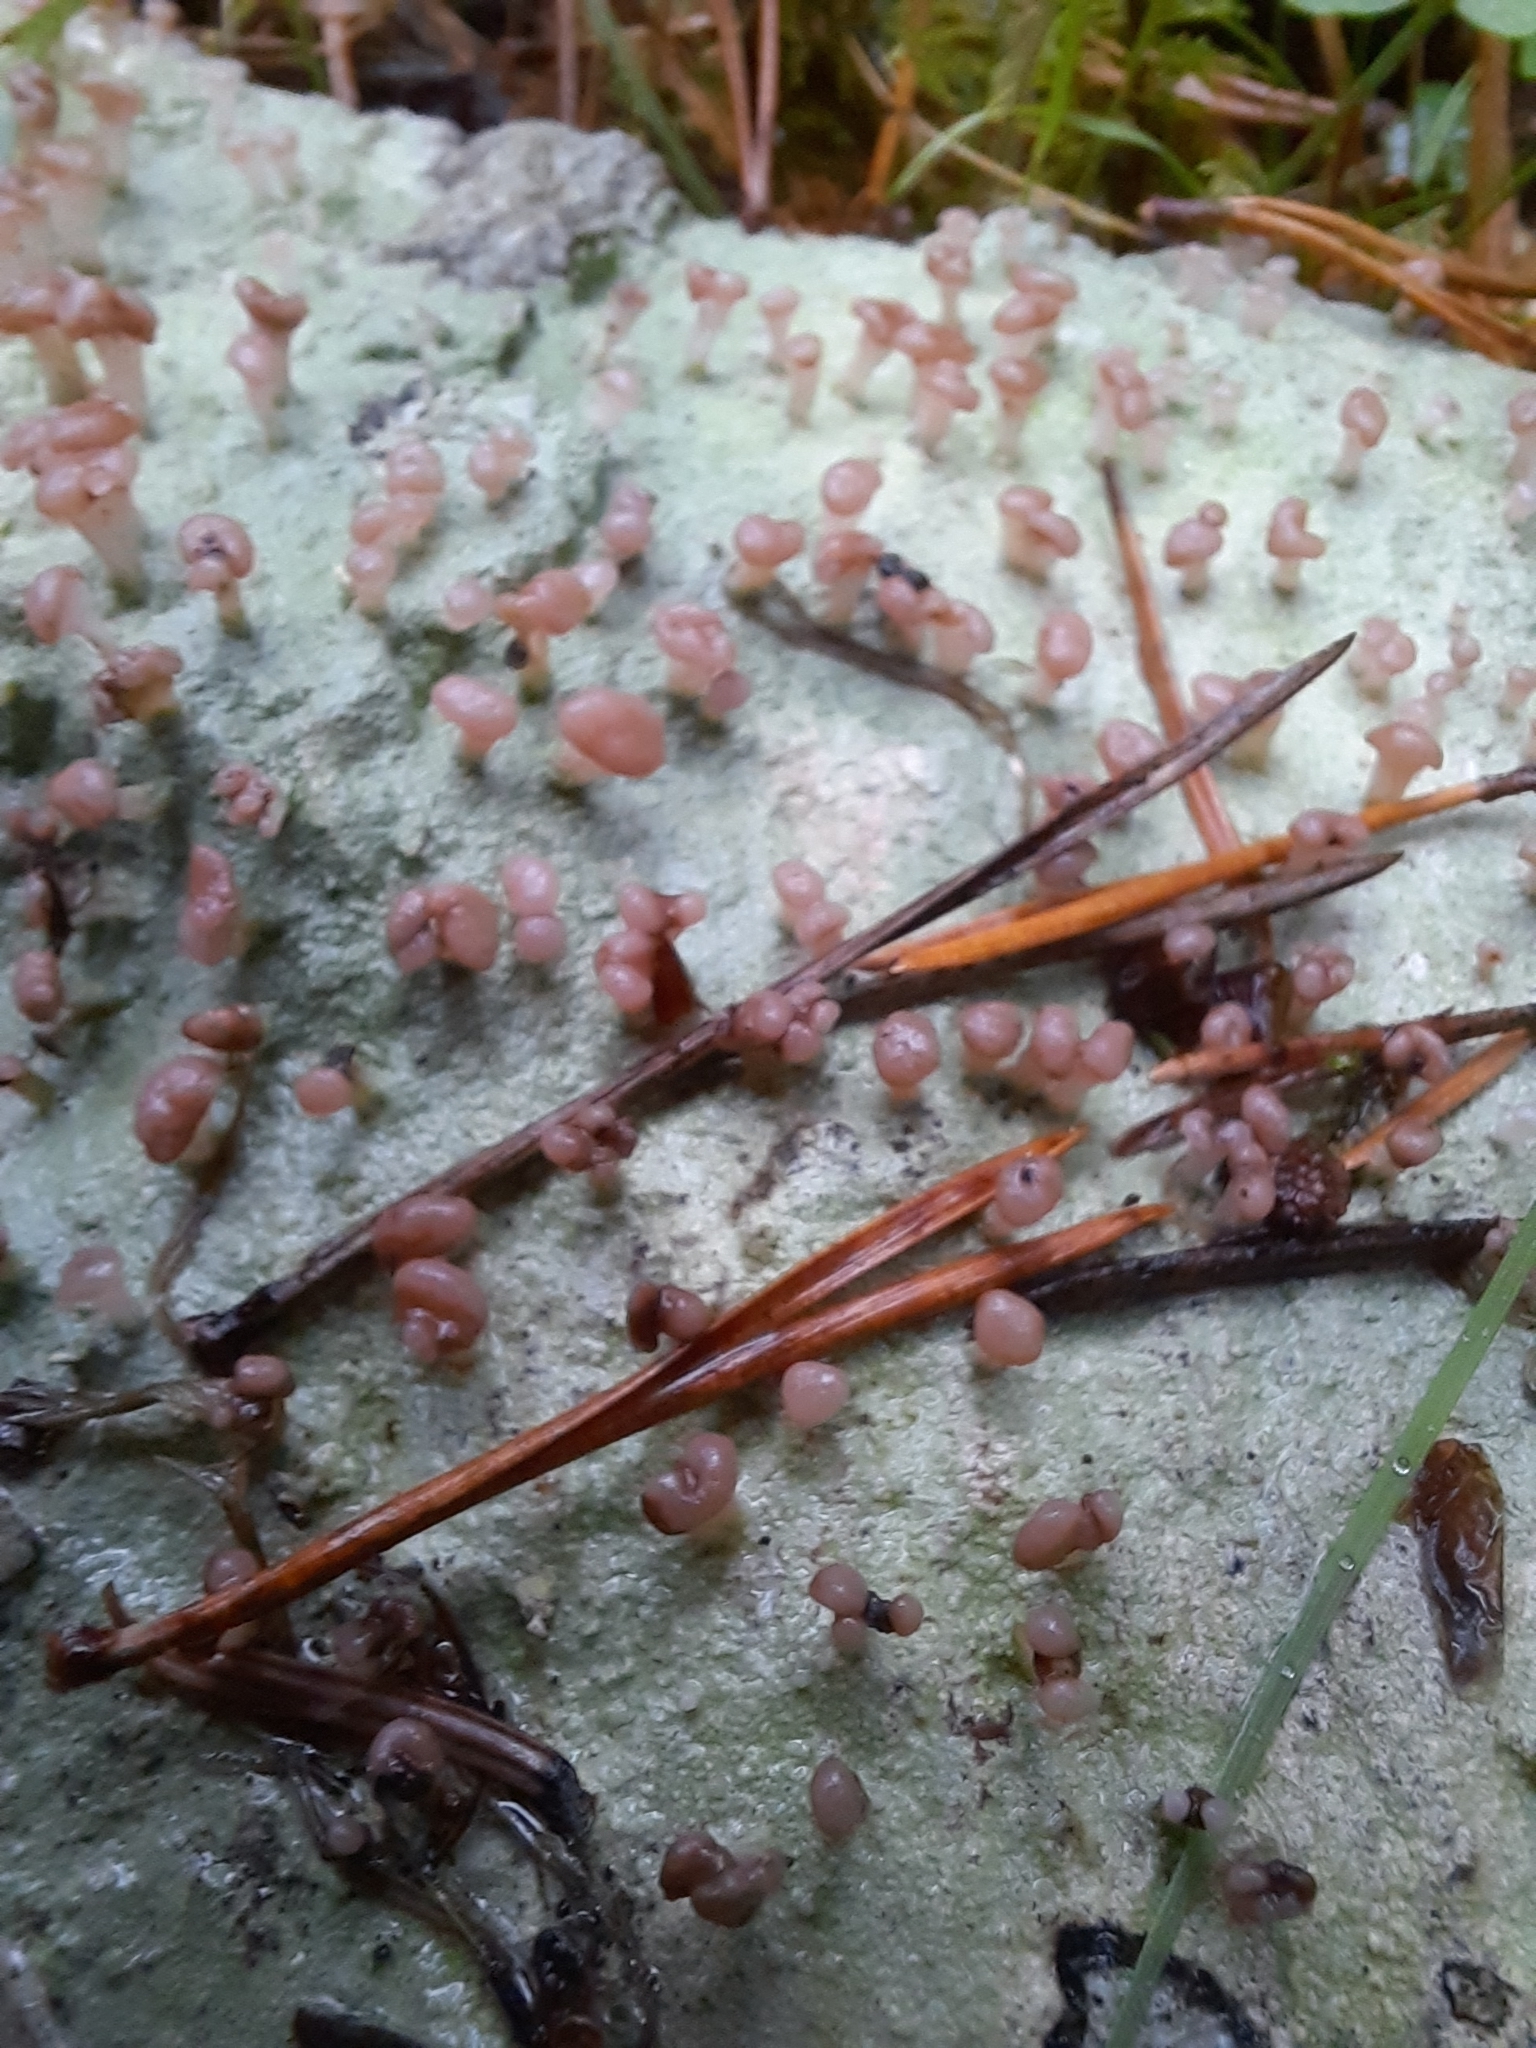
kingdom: Fungi
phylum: Ascomycota
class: Lecanoromycetes
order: Baeomycetales
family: Baeomycetaceae
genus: Baeomyces
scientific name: Baeomyces rufus
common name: Brown beret lichen
